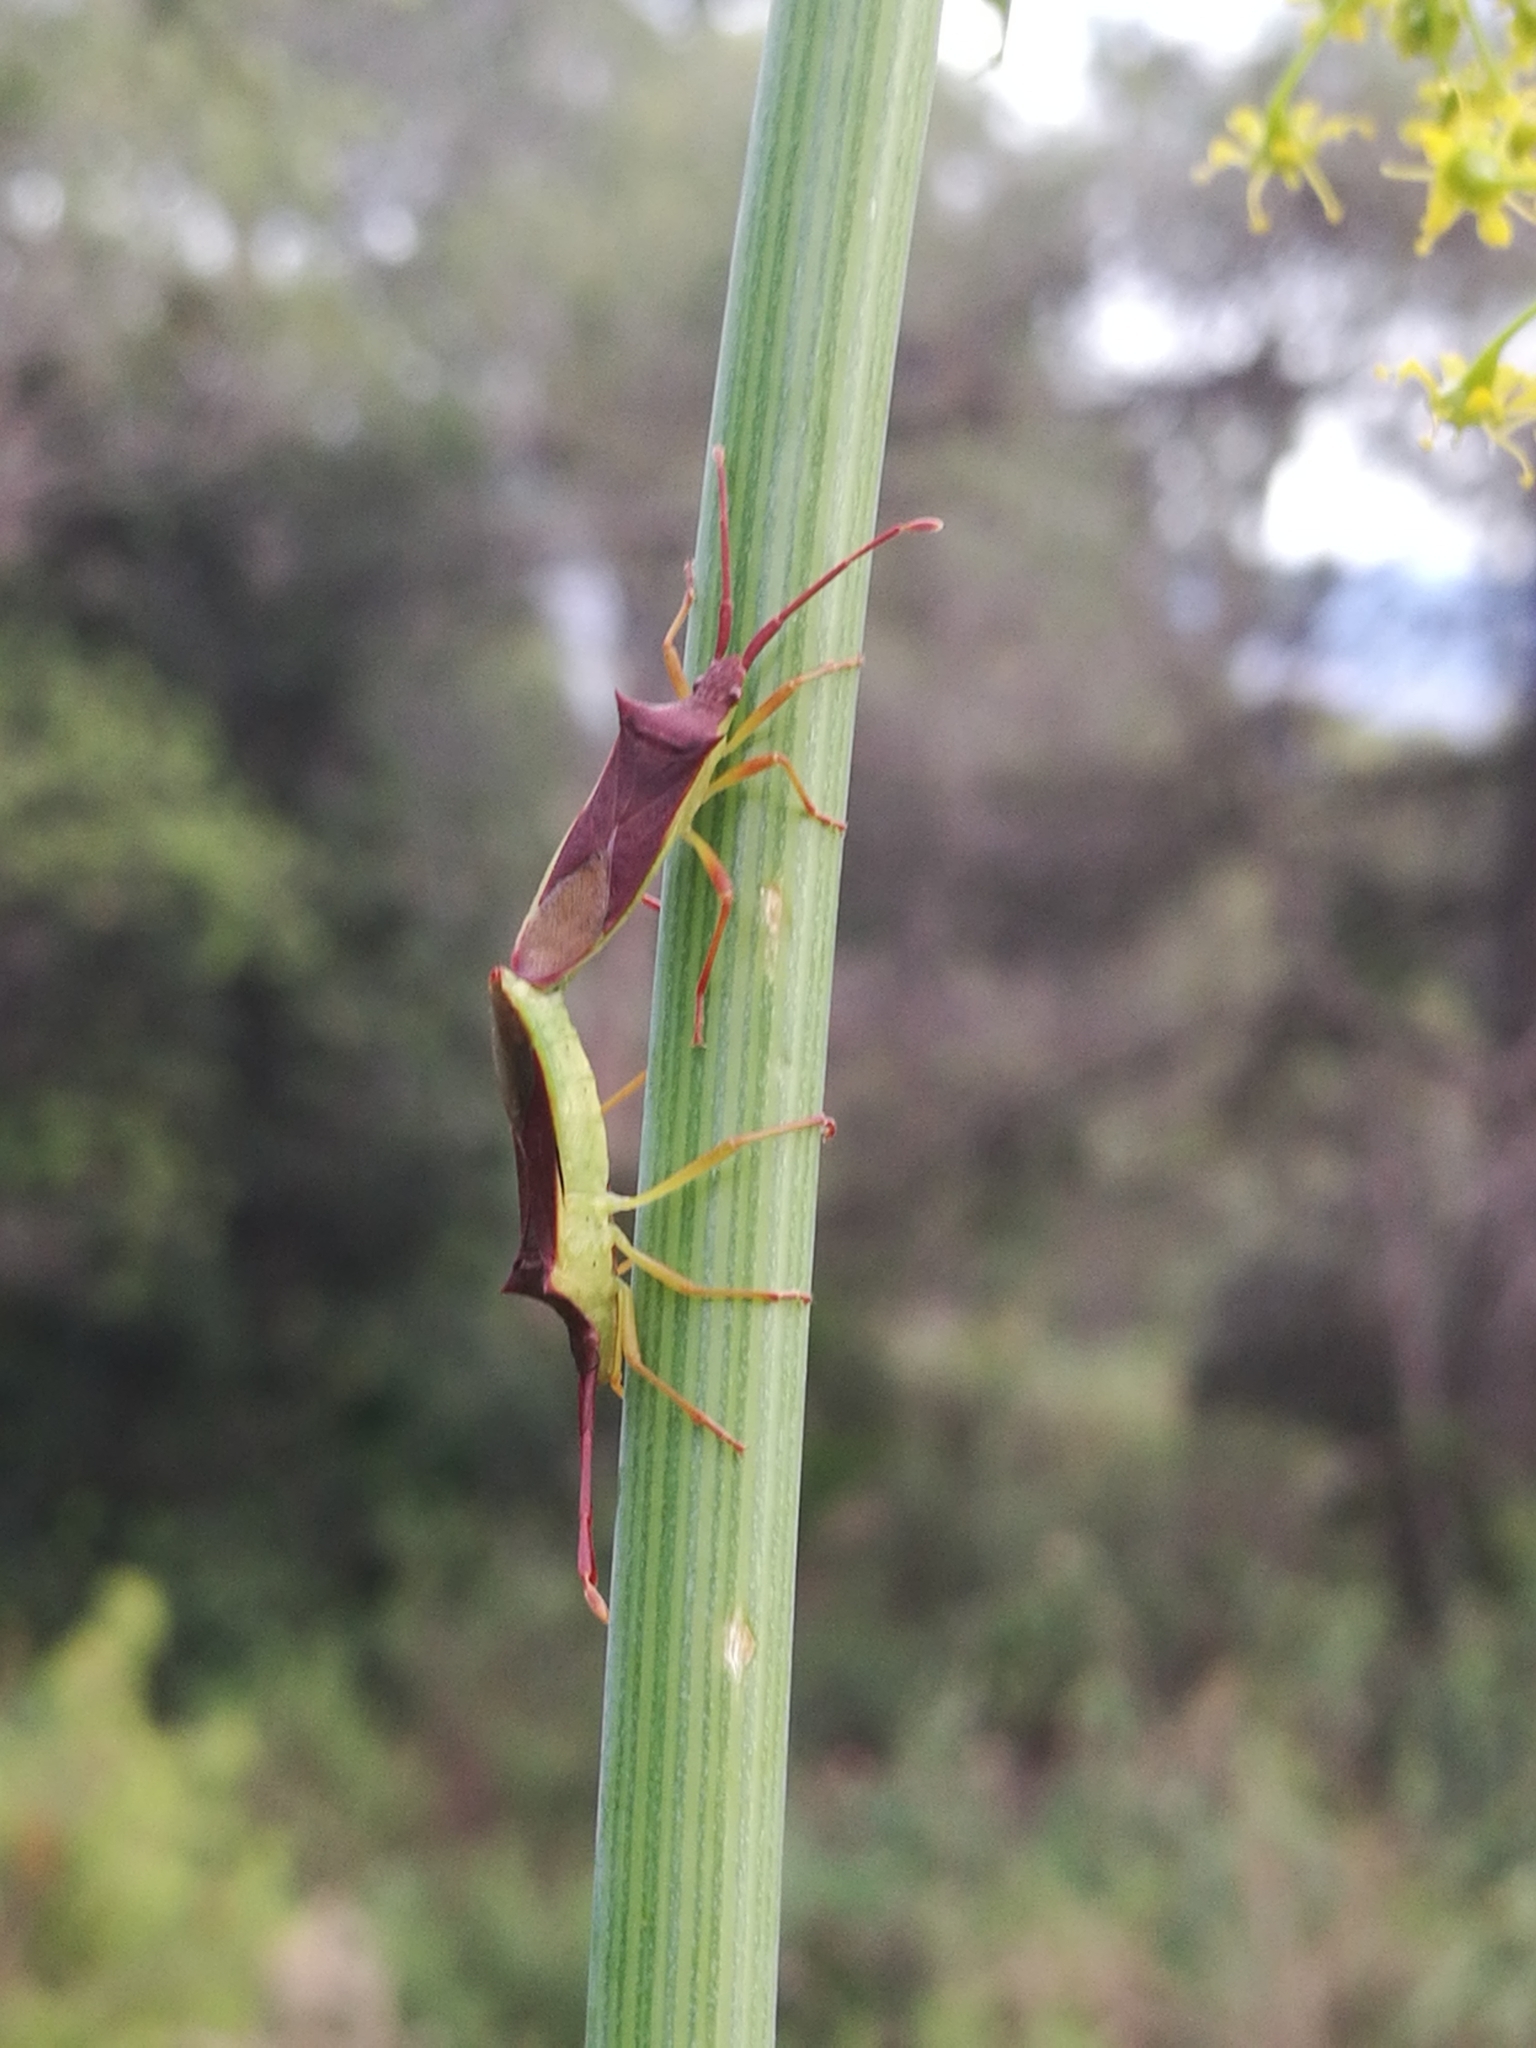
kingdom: Animalia
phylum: Arthropoda
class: Insecta
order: Hemiptera
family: Coreidae
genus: Gonocerus
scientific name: Gonocerus insidiator
